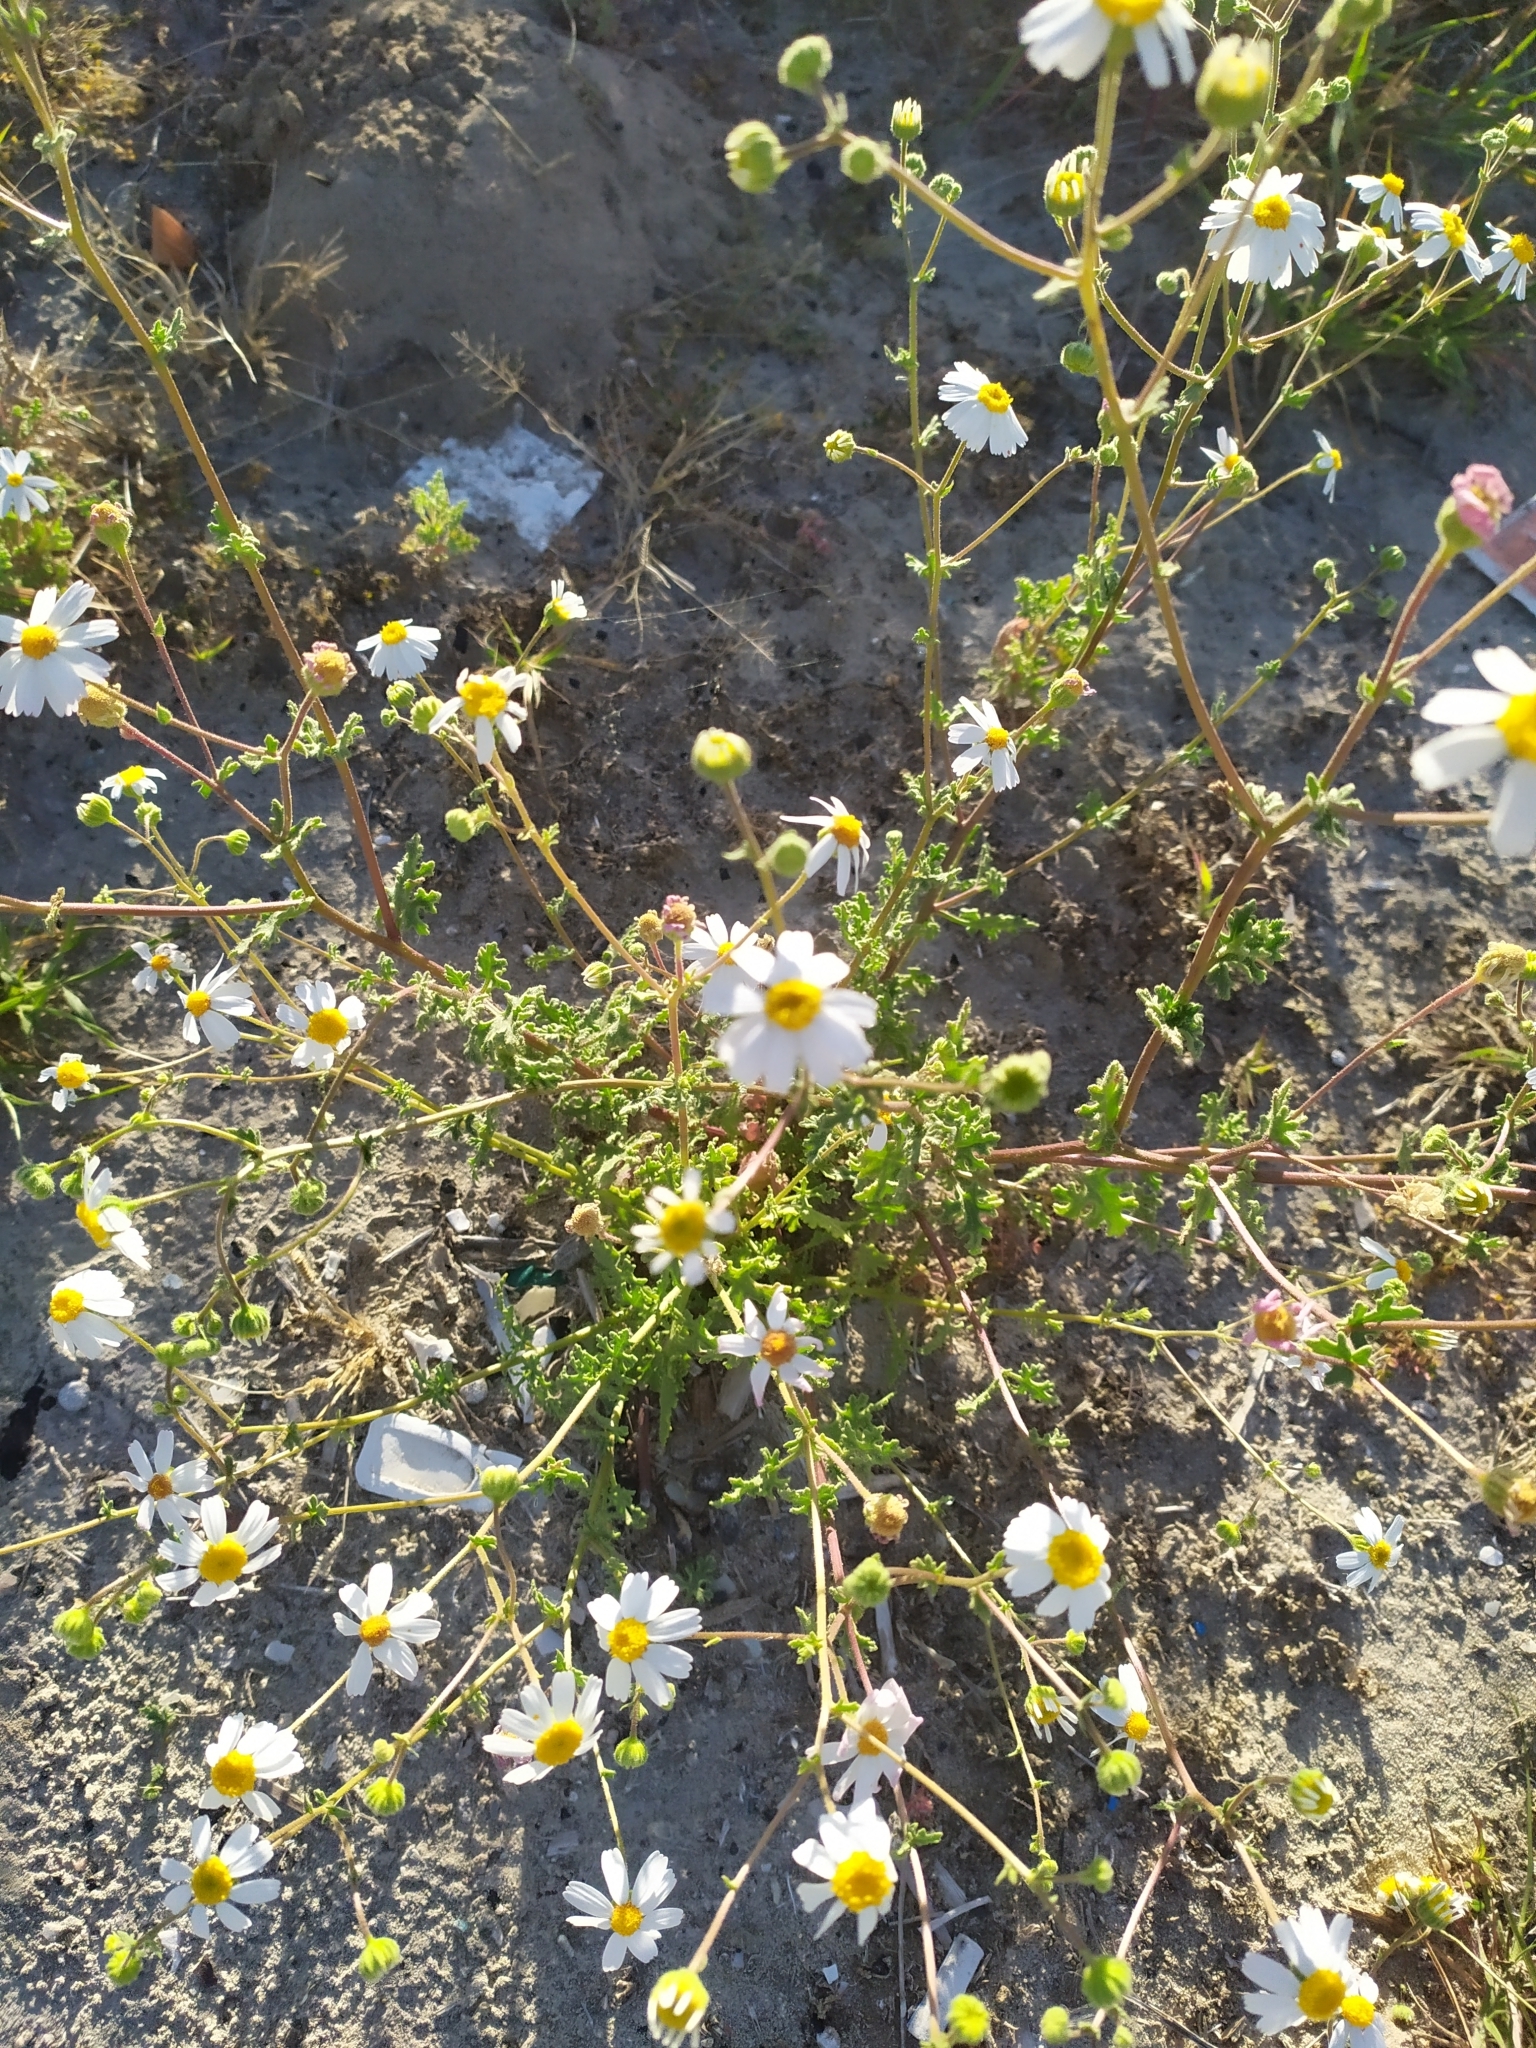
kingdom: Plantae
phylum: Tracheophyta
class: Magnoliopsida
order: Asterales
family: Asteraceae
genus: Perityle
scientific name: Perityle crassifolia
